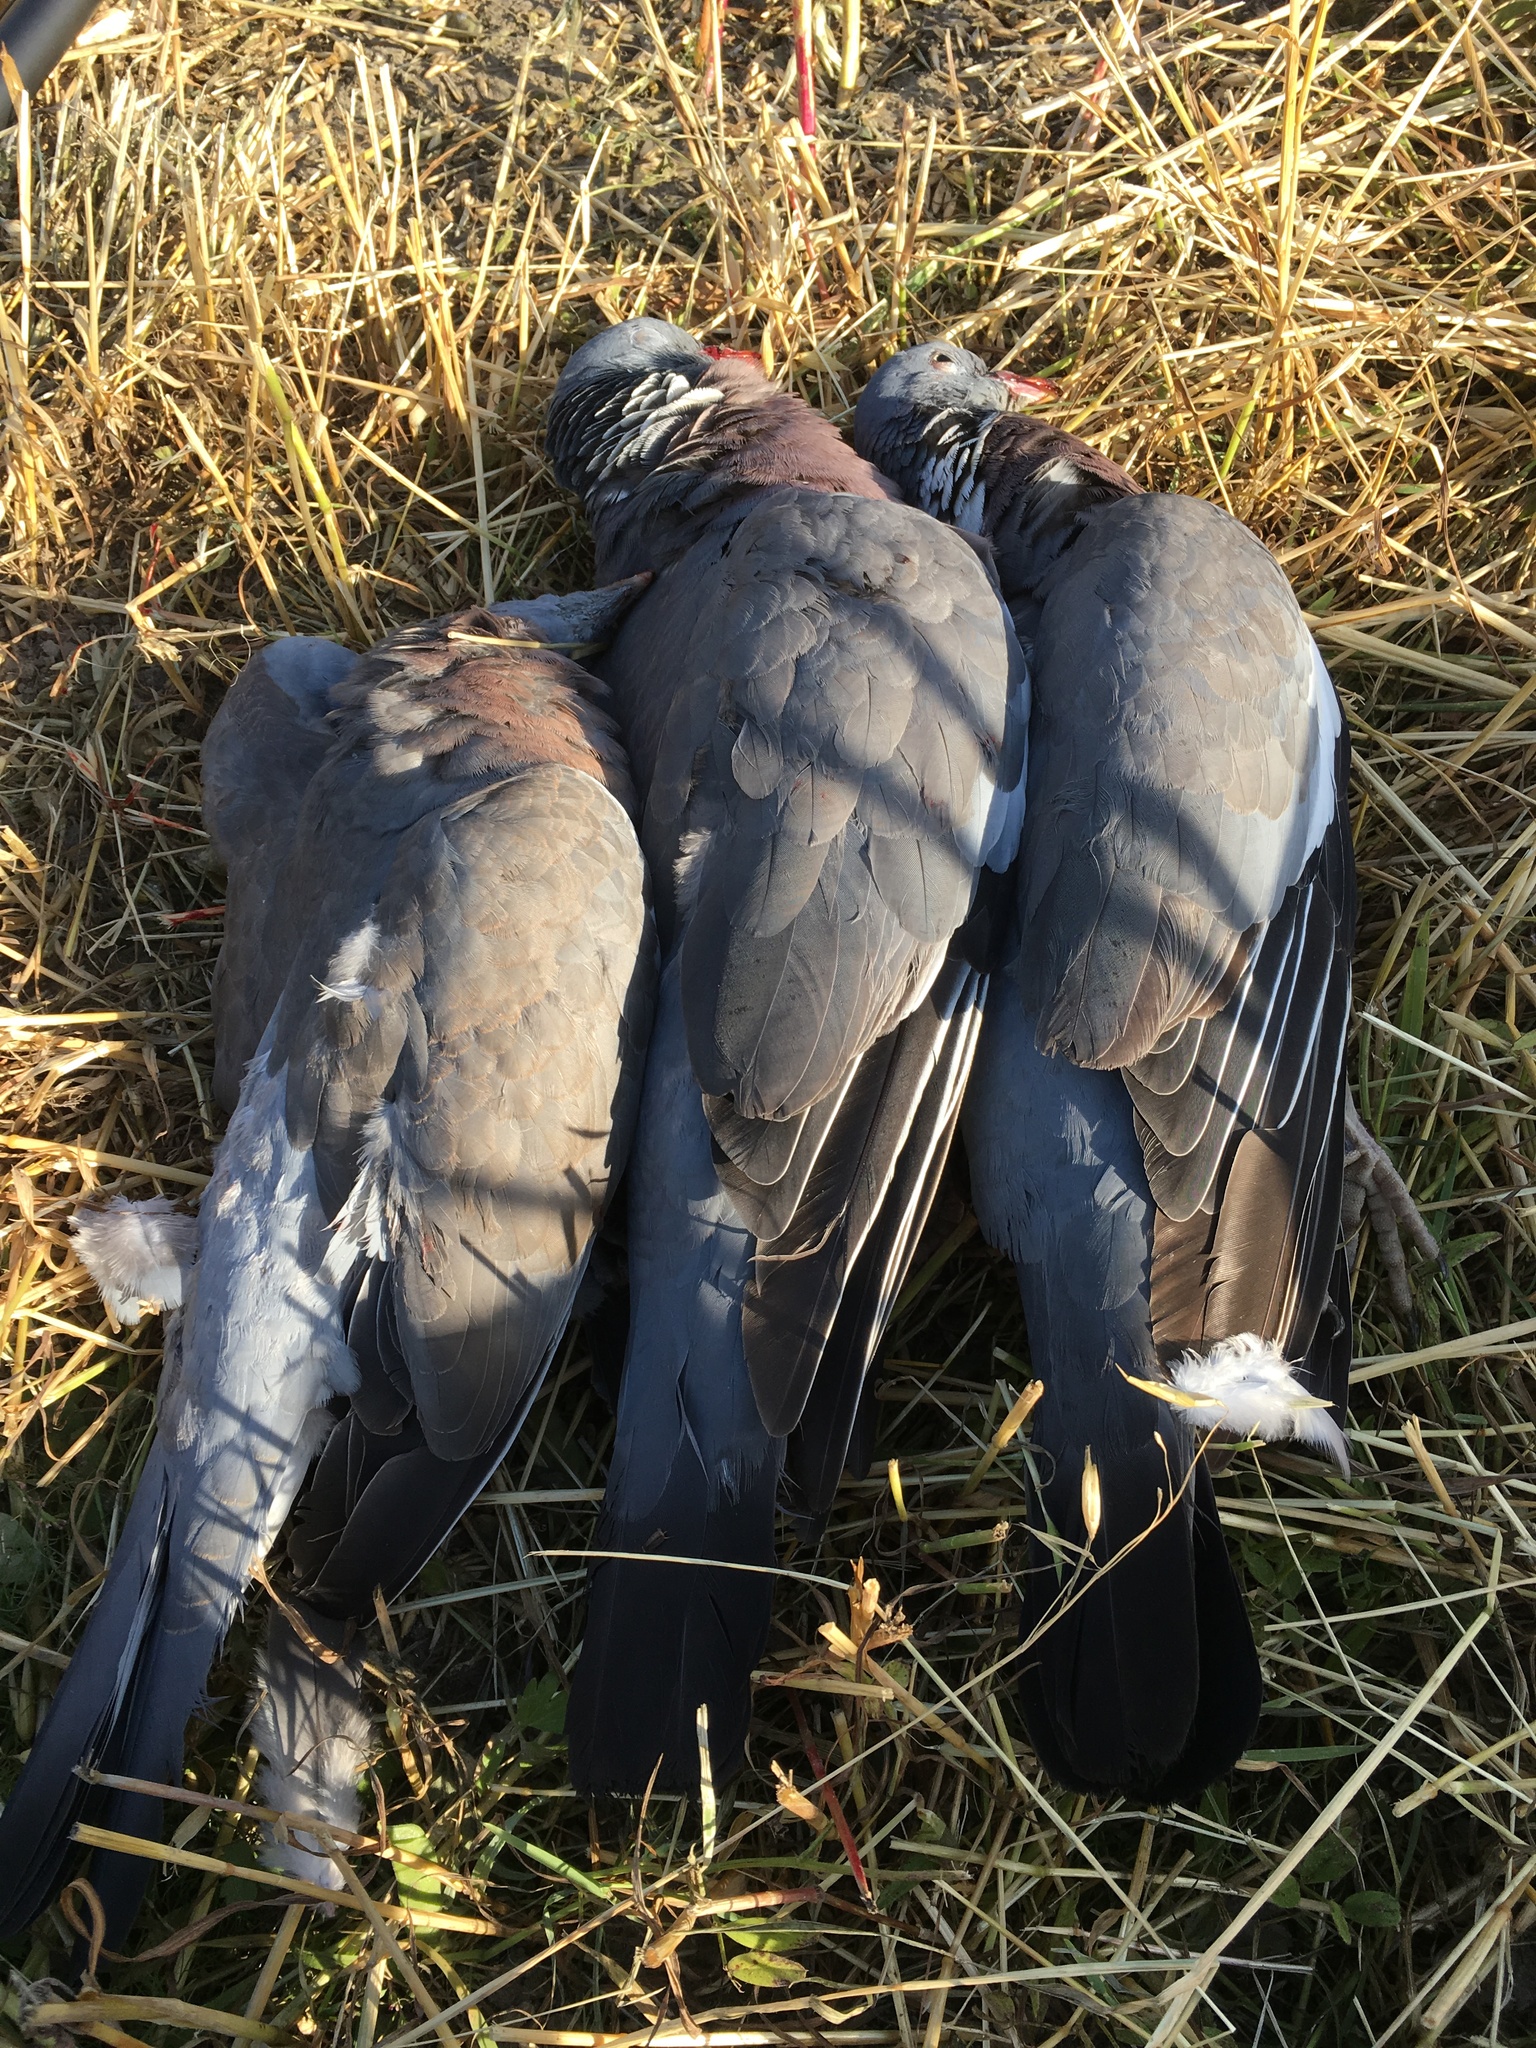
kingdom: Animalia
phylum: Chordata
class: Aves
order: Columbiformes
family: Columbidae
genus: Columba
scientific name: Columba palumbus
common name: Common wood pigeon
